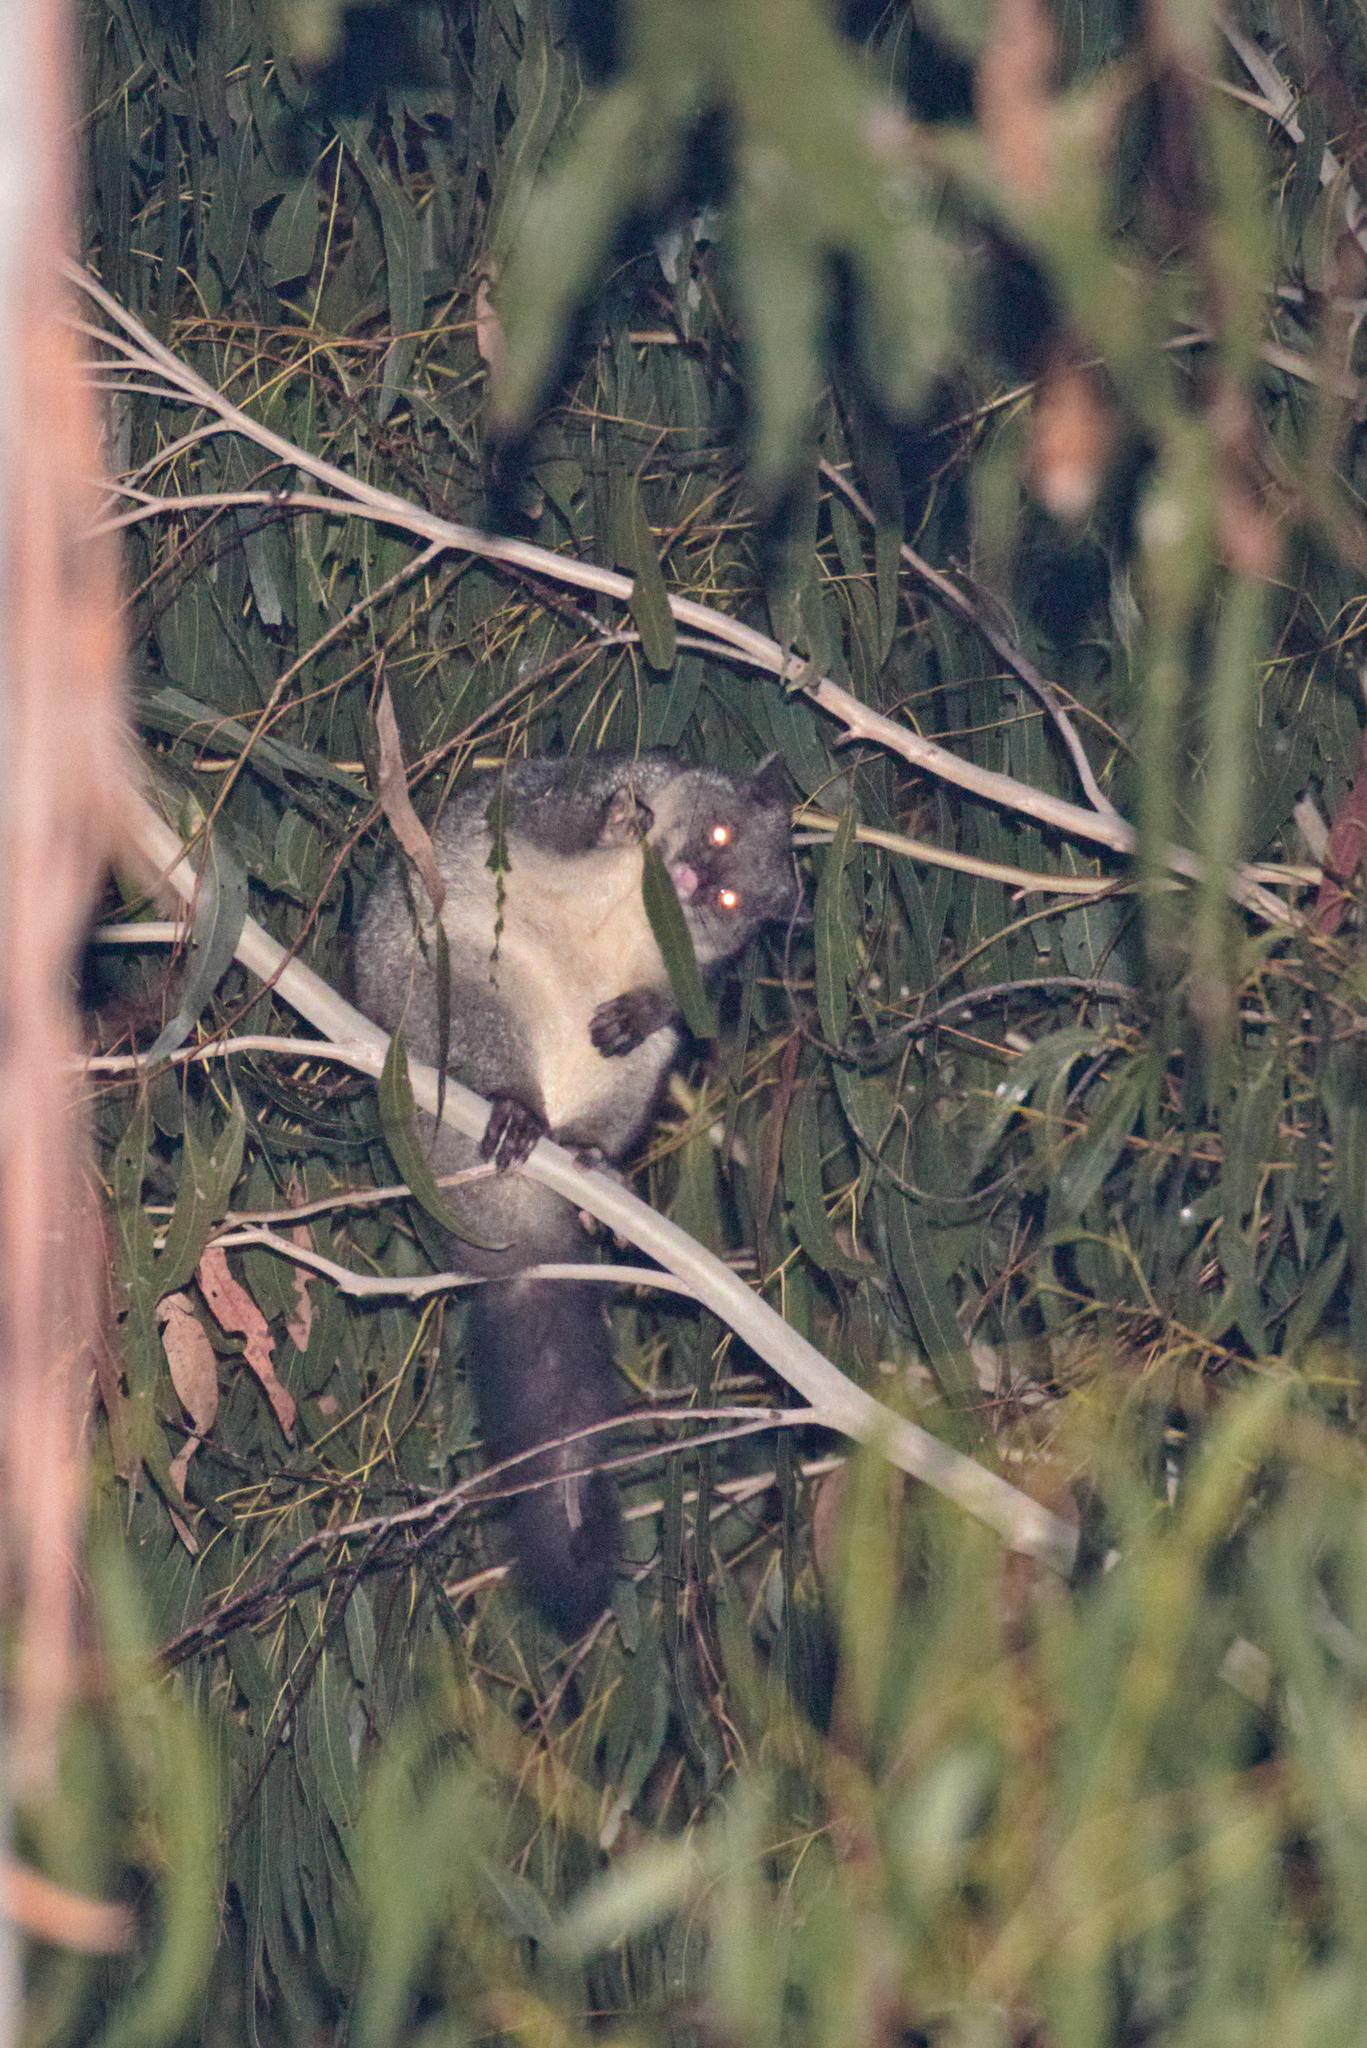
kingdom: Animalia
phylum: Chordata
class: Mammalia
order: Diprotodontia
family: Phalangeridae
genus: Trichosurus
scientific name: Trichosurus cunninghami
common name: Mountain brushtail possum
